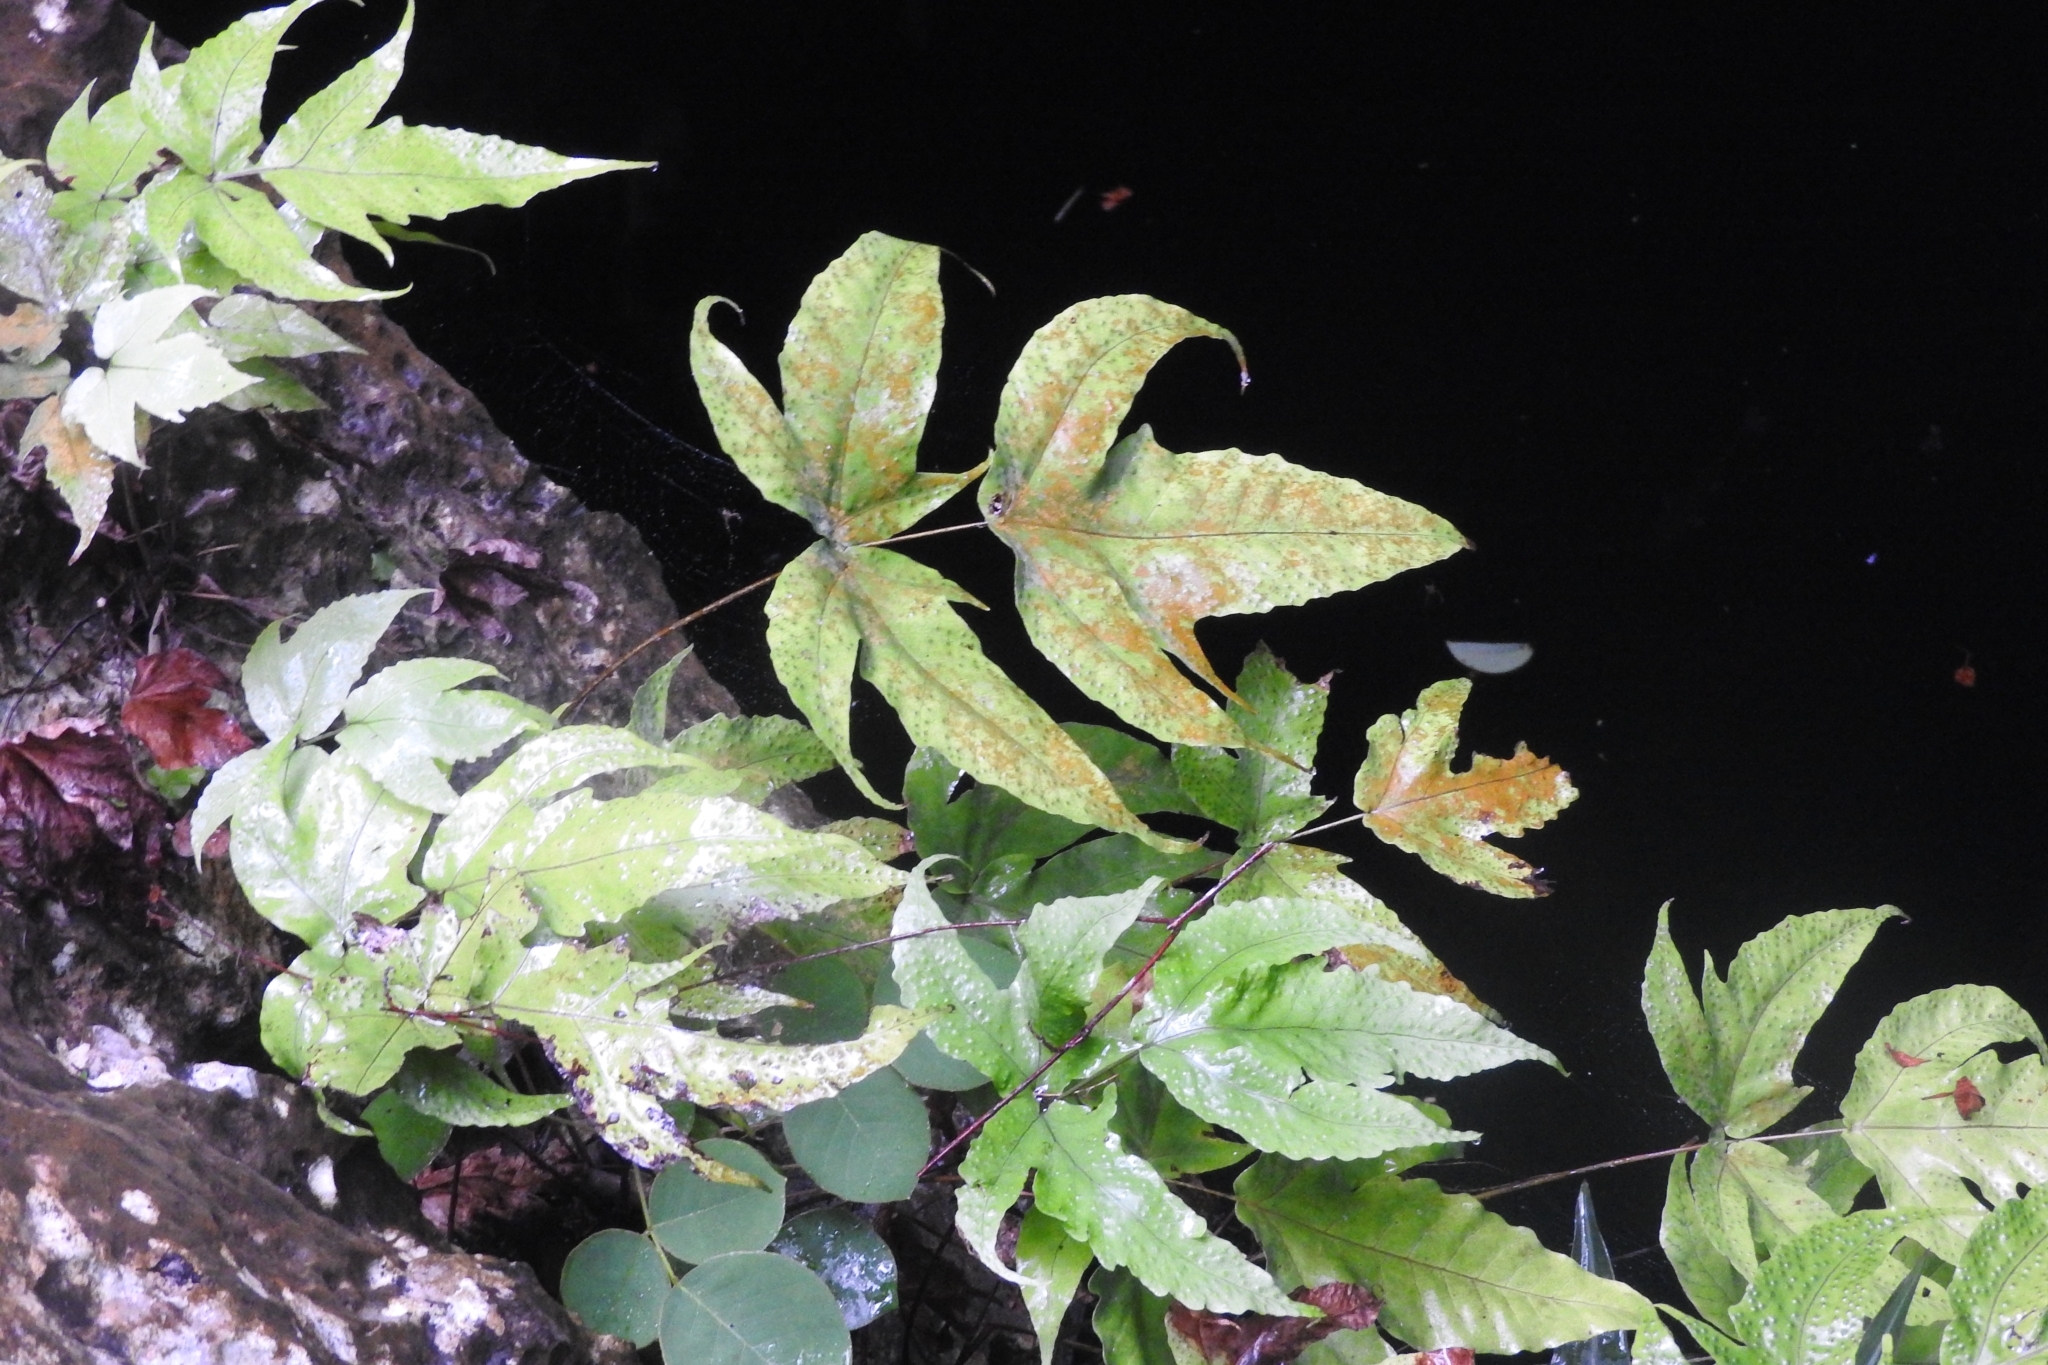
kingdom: Plantae
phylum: Tracheophyta
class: Polypodiopsida
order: Polypodiales
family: Tectariaceae
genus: Tectaria
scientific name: Tectaria heracleifolia
